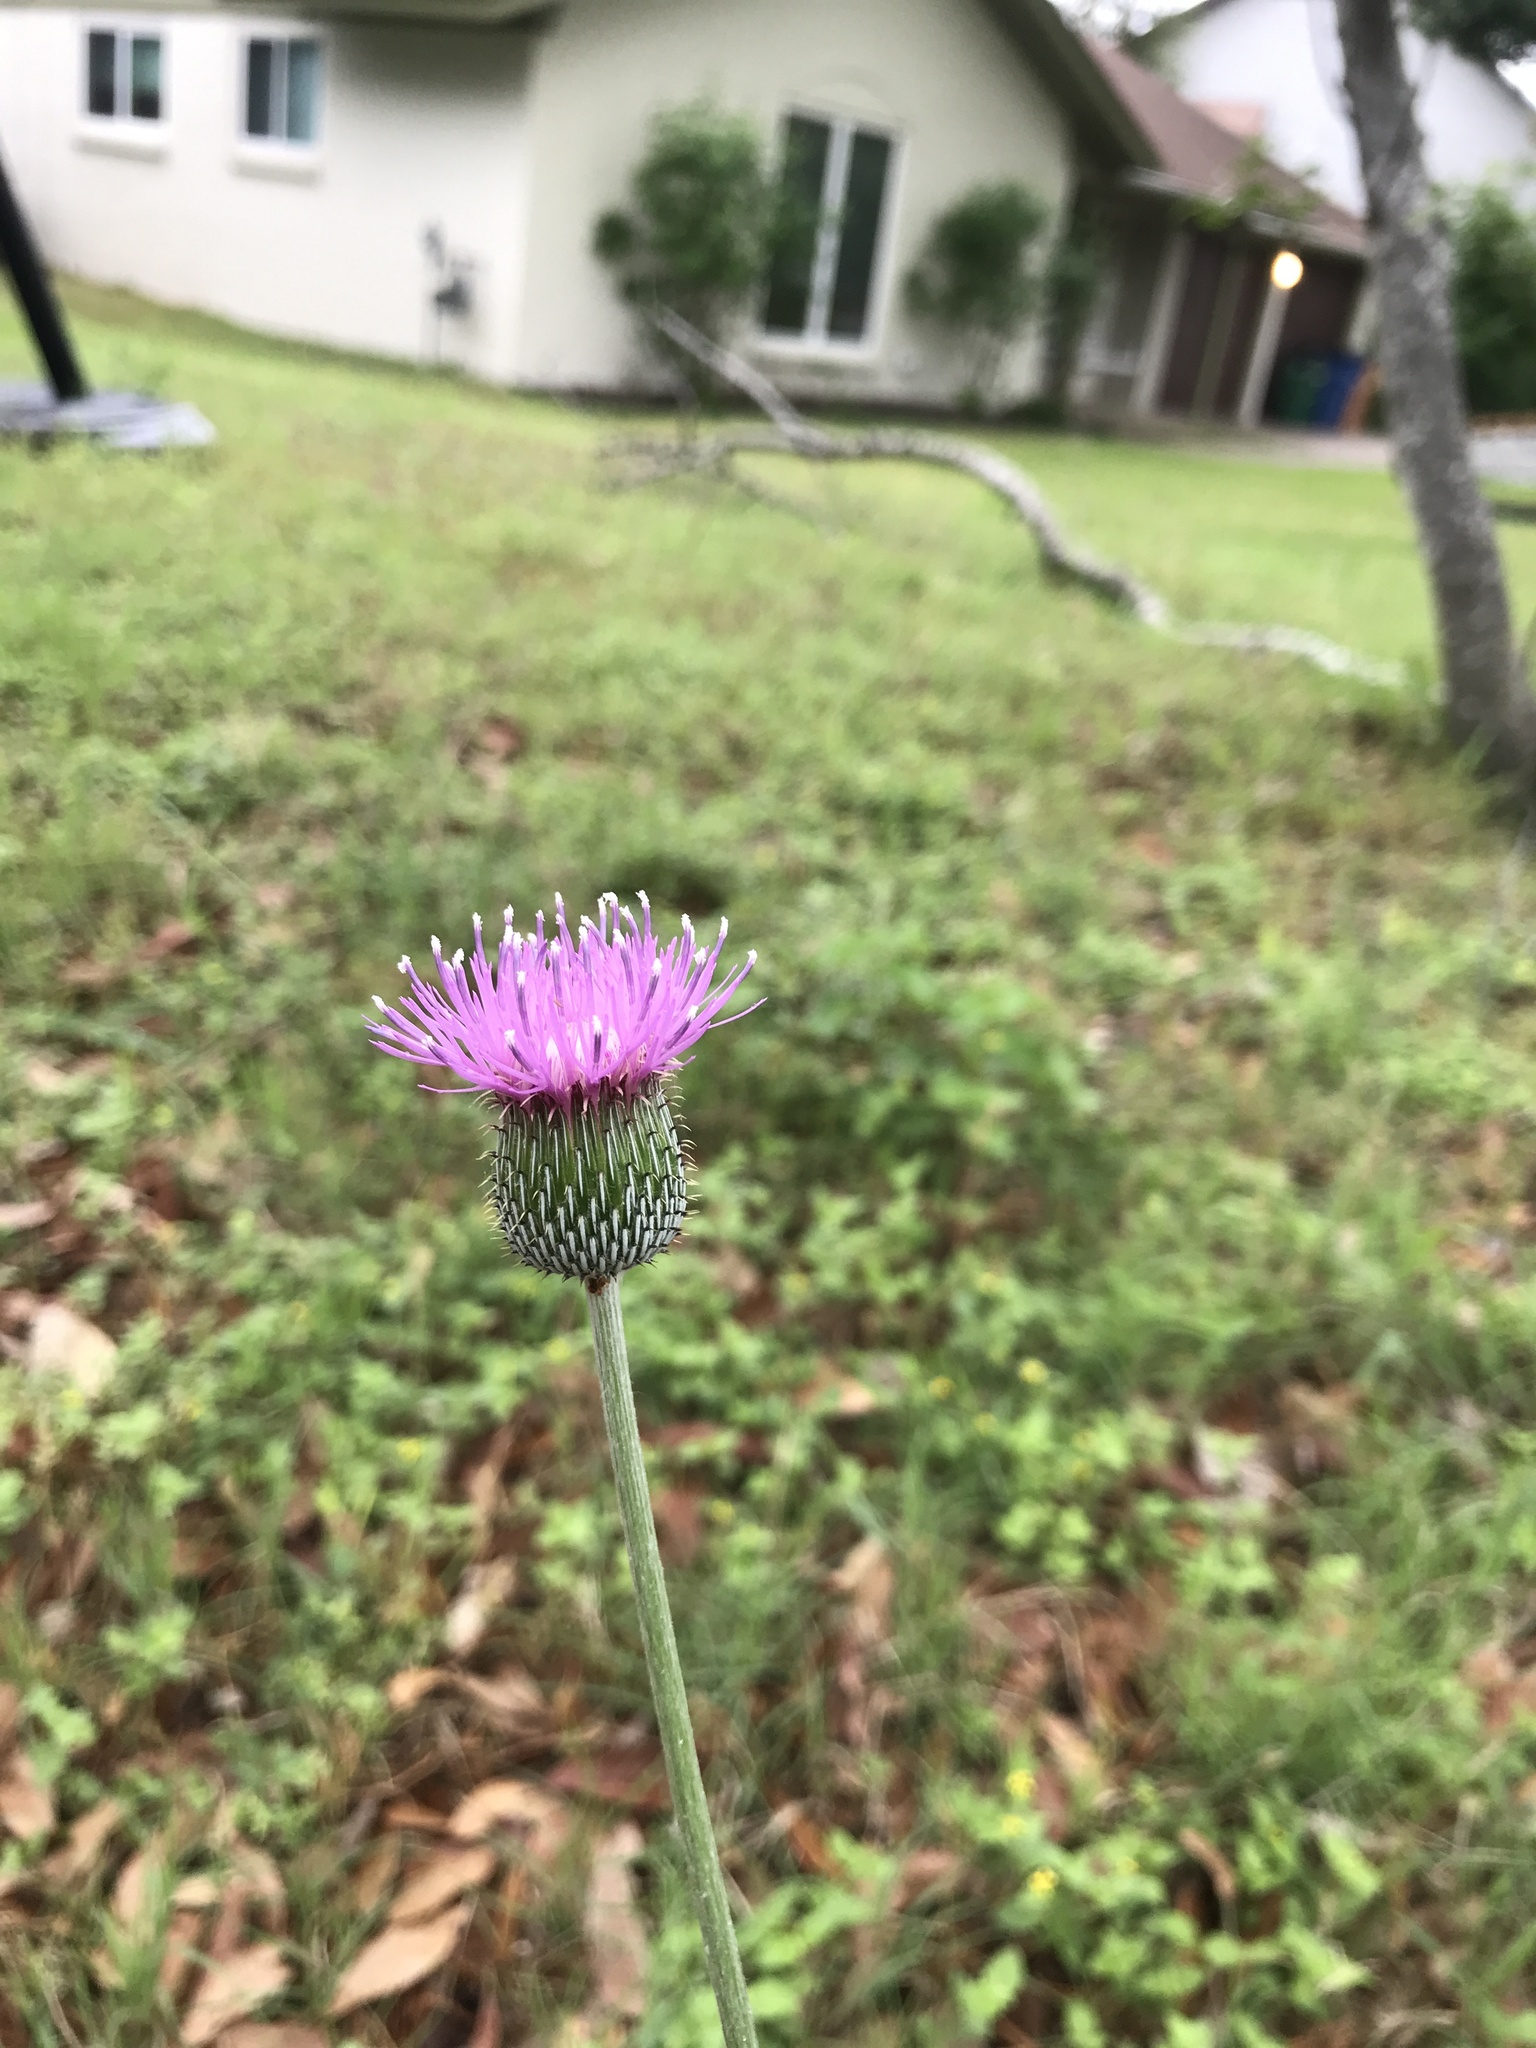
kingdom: Plantae
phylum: Tracheophyta
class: Magnoliopsida
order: Asterales
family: Asteraceae
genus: Cirsium
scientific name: Cirsium texanum
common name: Texas purple thistle
